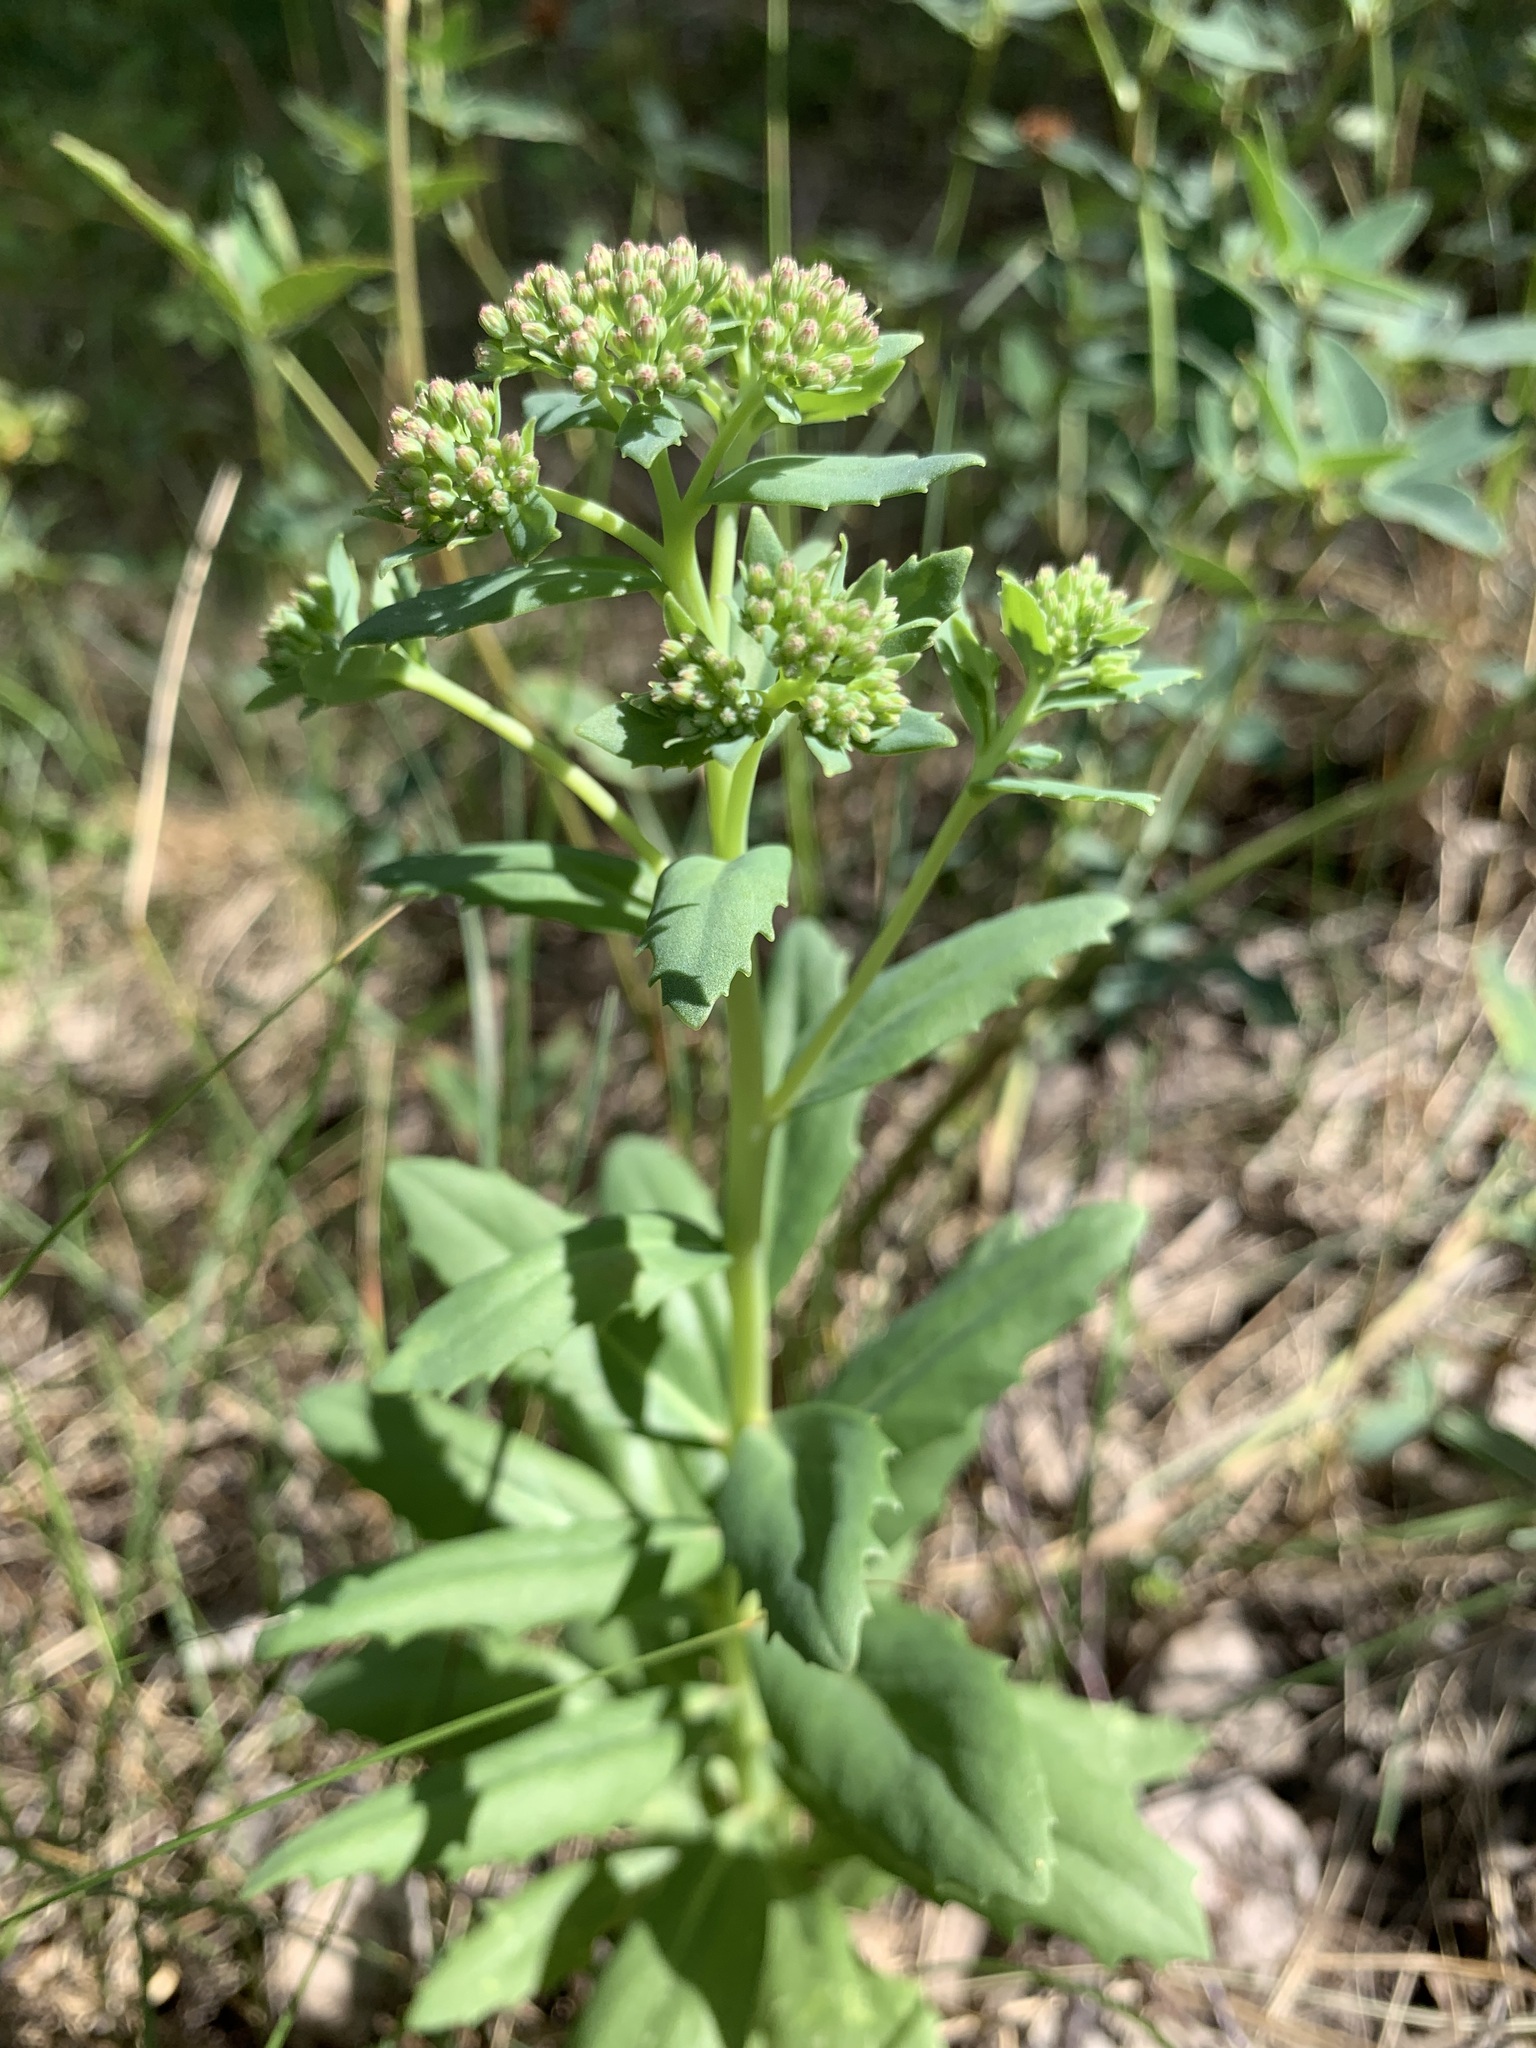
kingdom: Plantae
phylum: Tracheophyta
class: Magnoliopsida
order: Saxifragales
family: Crassulaceae
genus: Hylotelephium
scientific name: Hylotelephium telephium
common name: Live-forever
